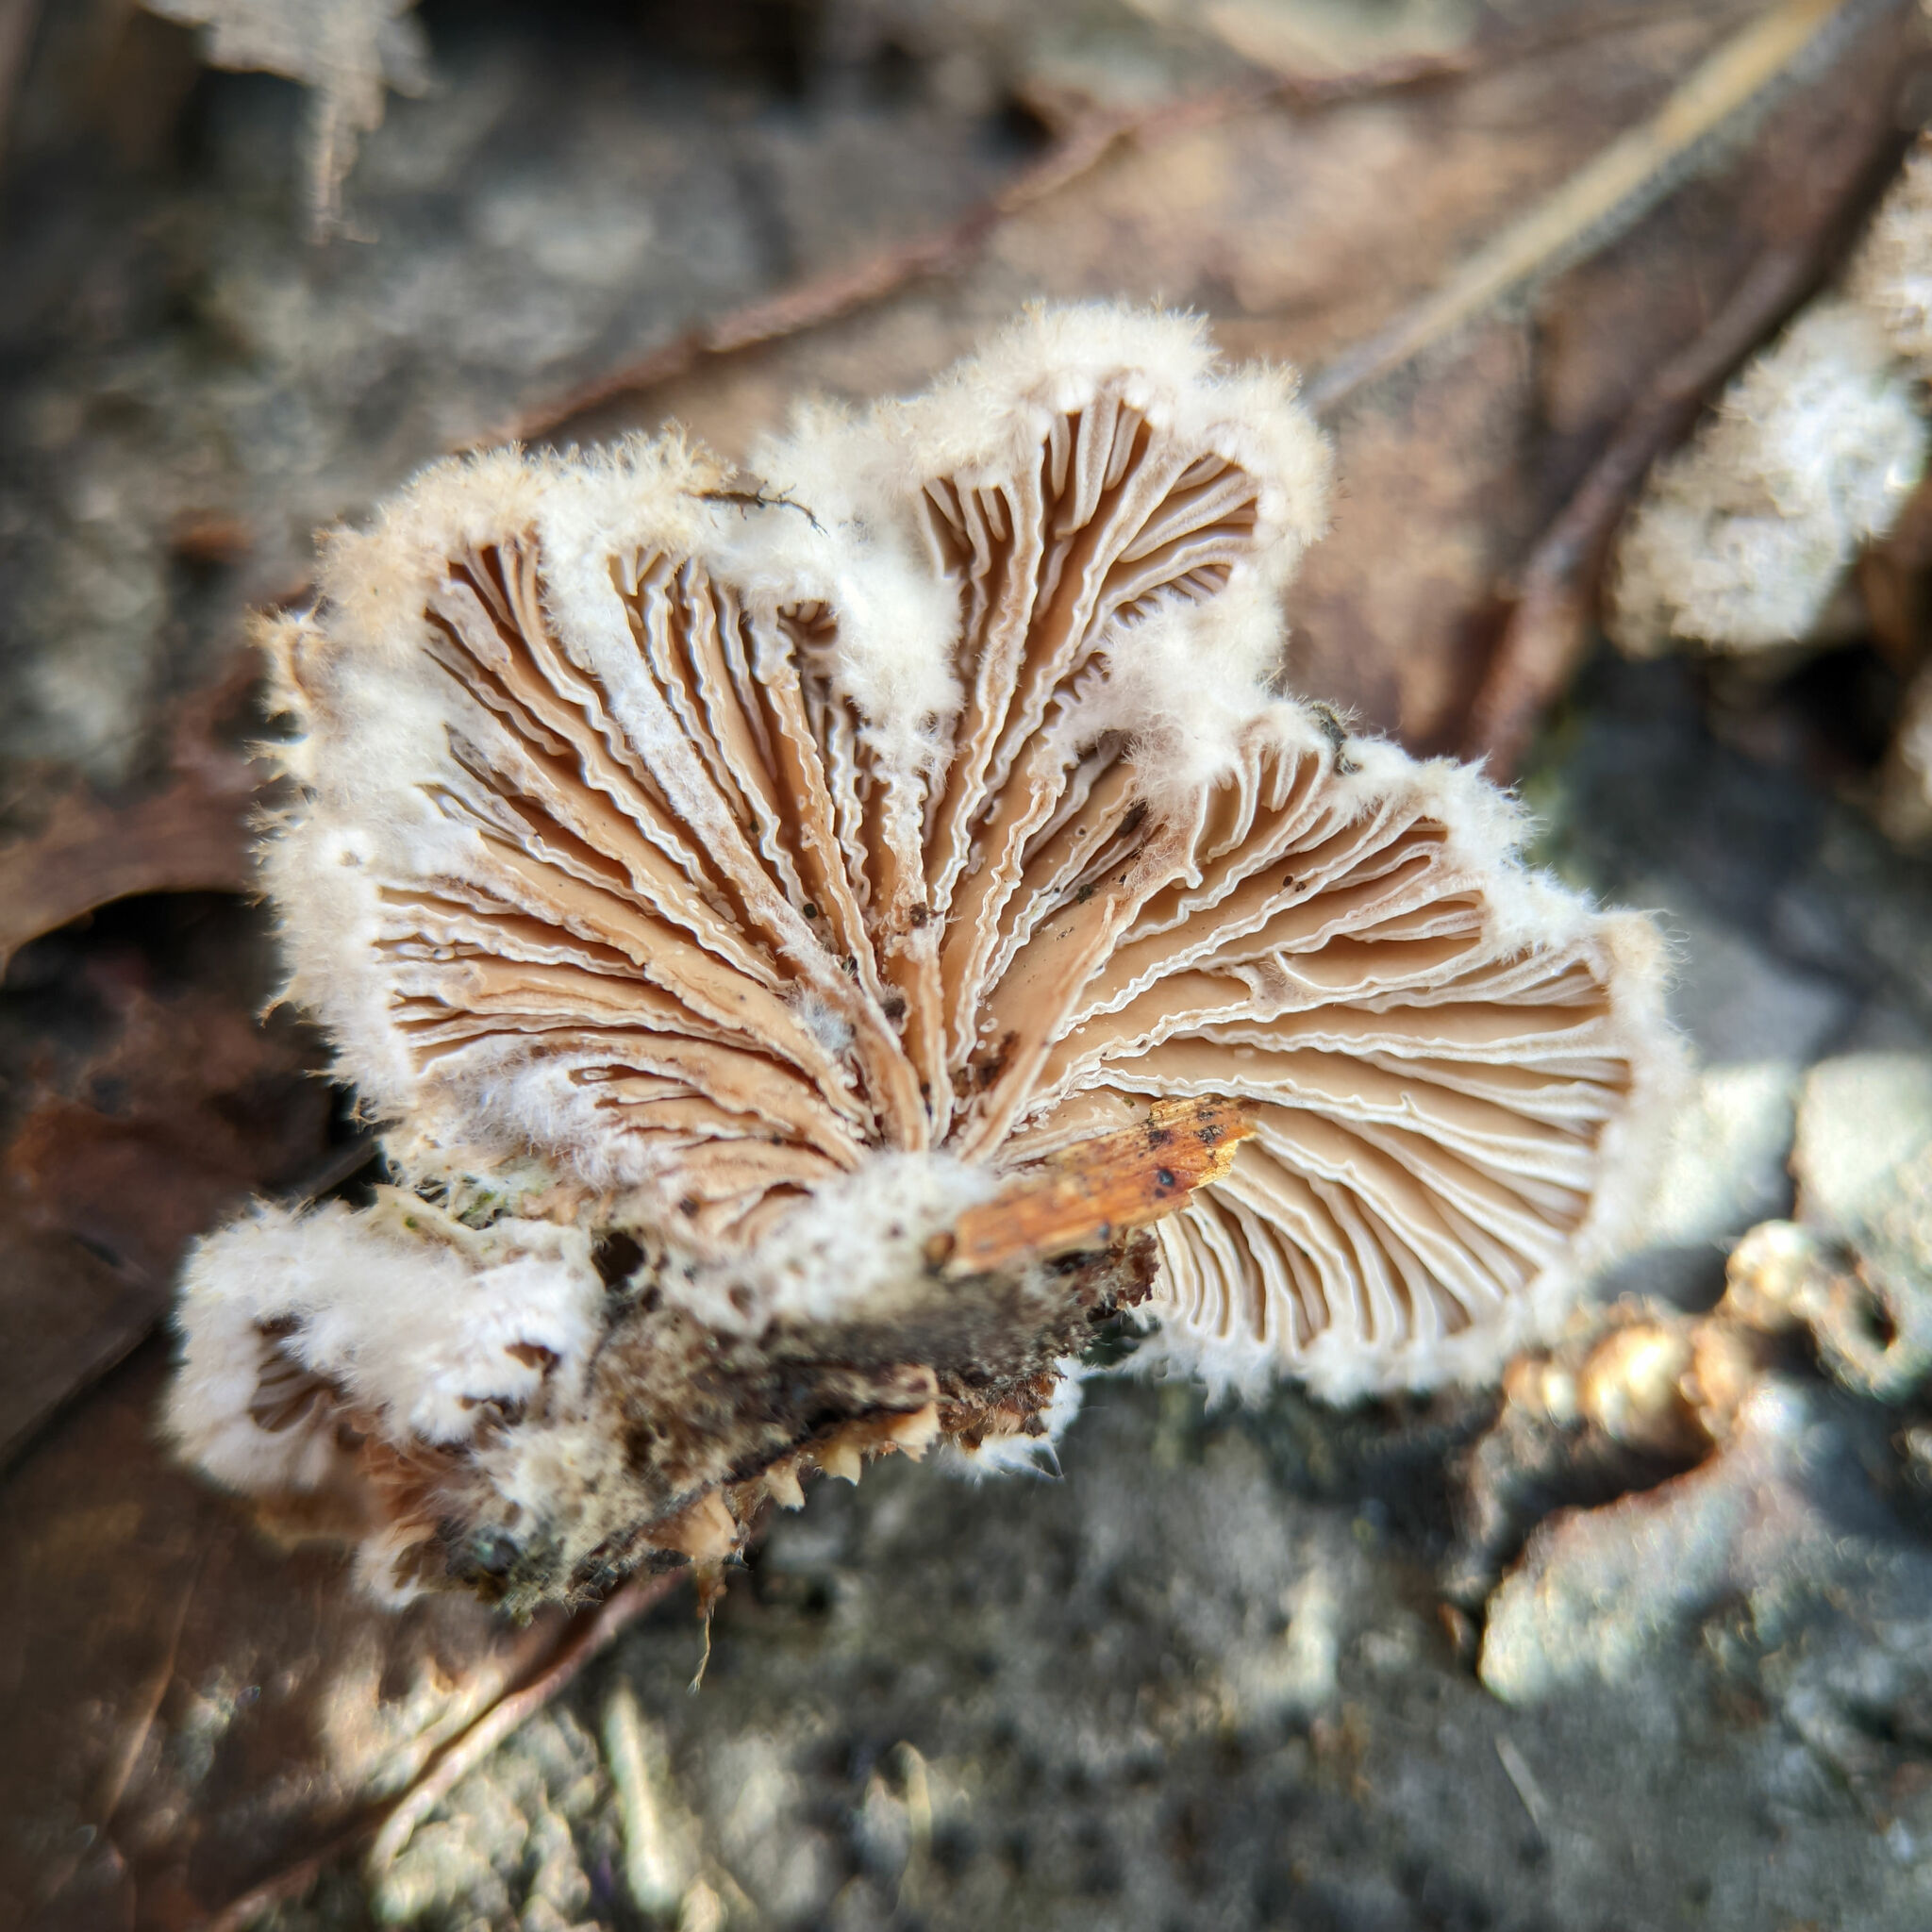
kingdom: Fungi
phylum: Basidiomycota
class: Agaricomycetes
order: Agaricales
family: Schizophyllaceae
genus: Schizophyllum
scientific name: Schizophyllum commune
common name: Common porecrust
